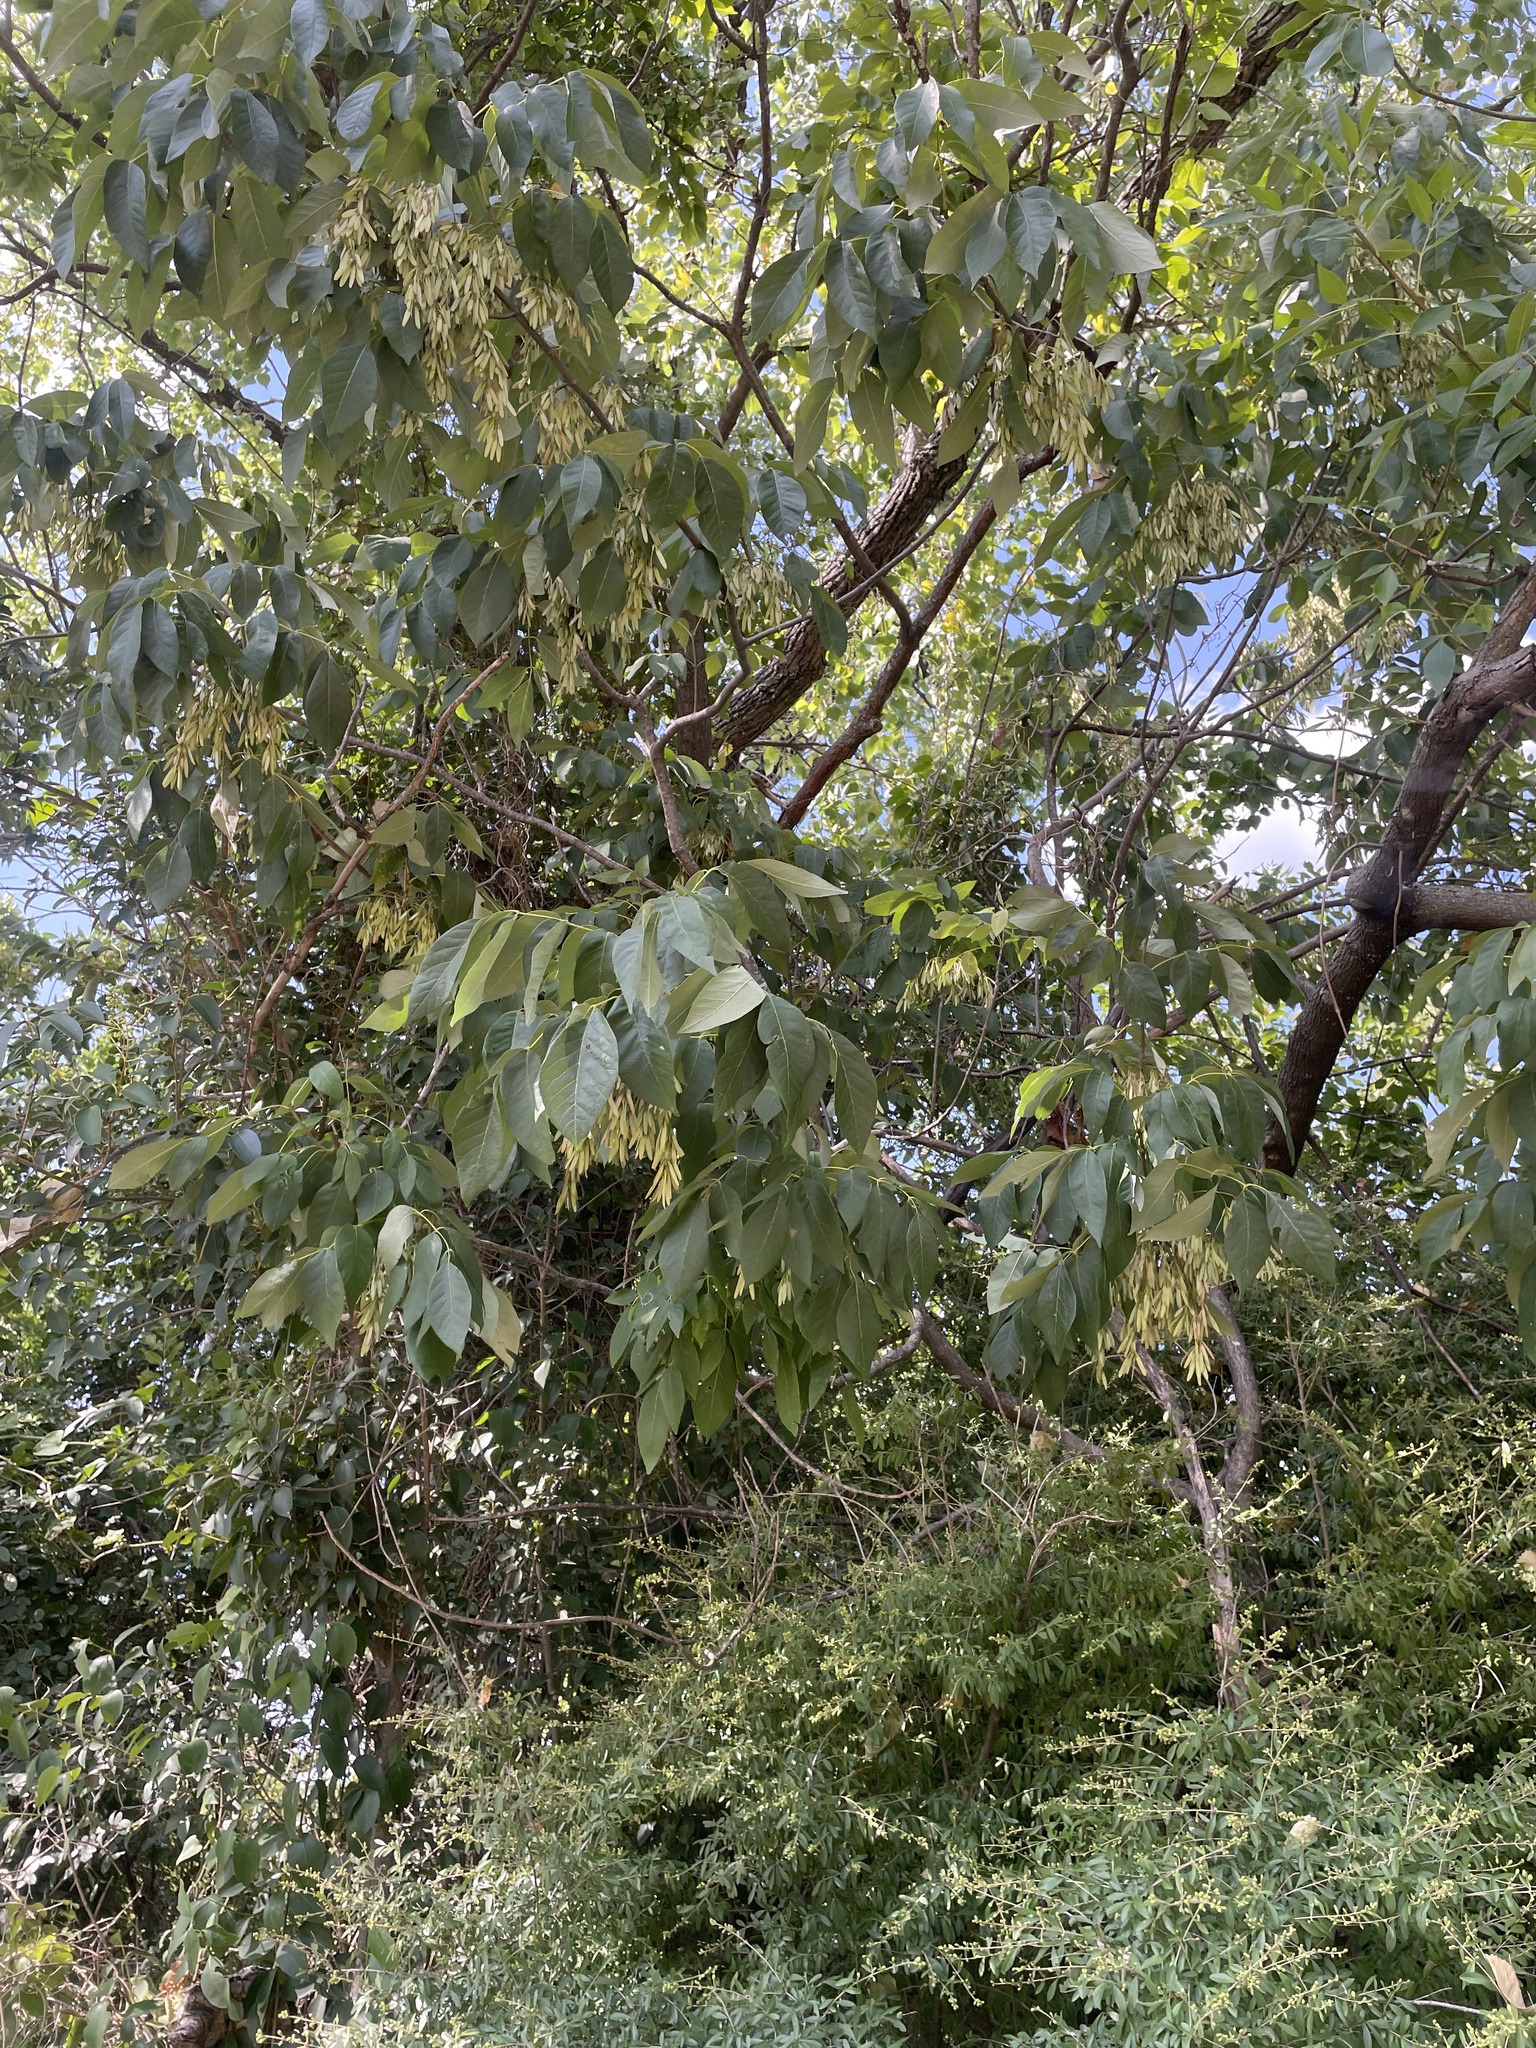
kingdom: Plantae
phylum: Tracheophyta
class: Magnoliopsida
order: Lamiales
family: Oleaceae
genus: Fraxinus
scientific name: Fraxinus americana
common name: White ash
